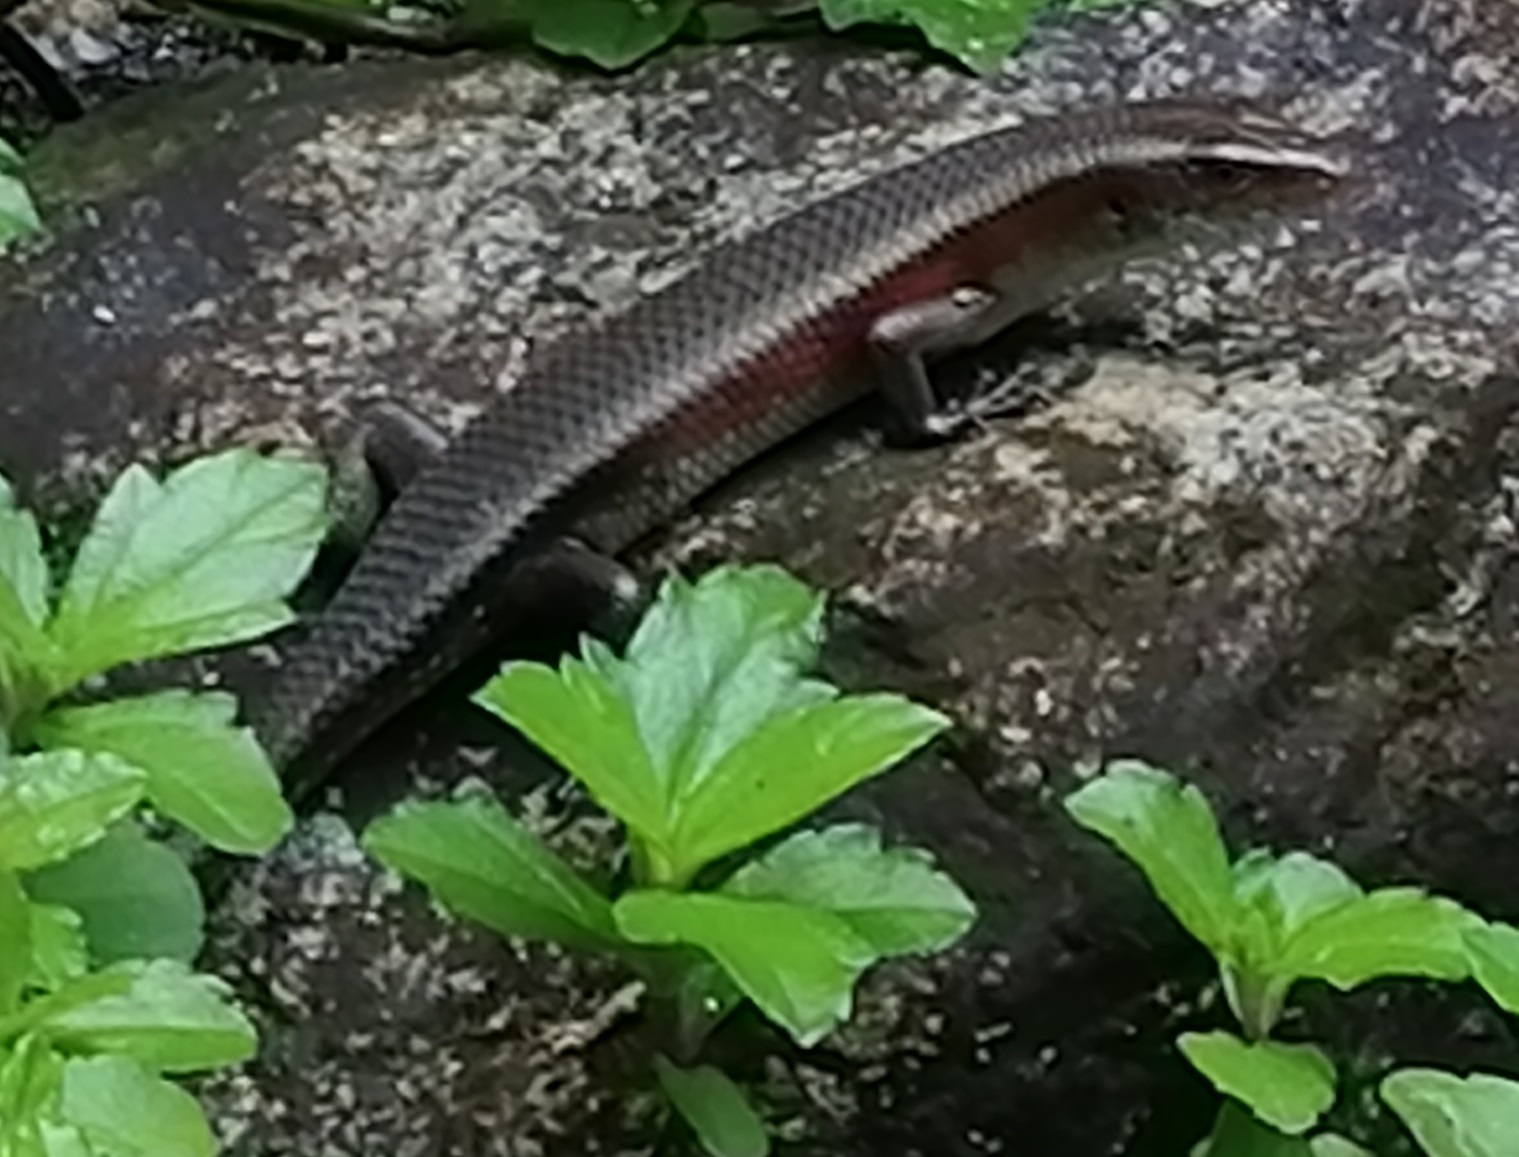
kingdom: Animalia
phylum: Chordata
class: Squamata
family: Scincidae
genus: Eutropis
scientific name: Eutropis multifasciata
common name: Common mabuya
